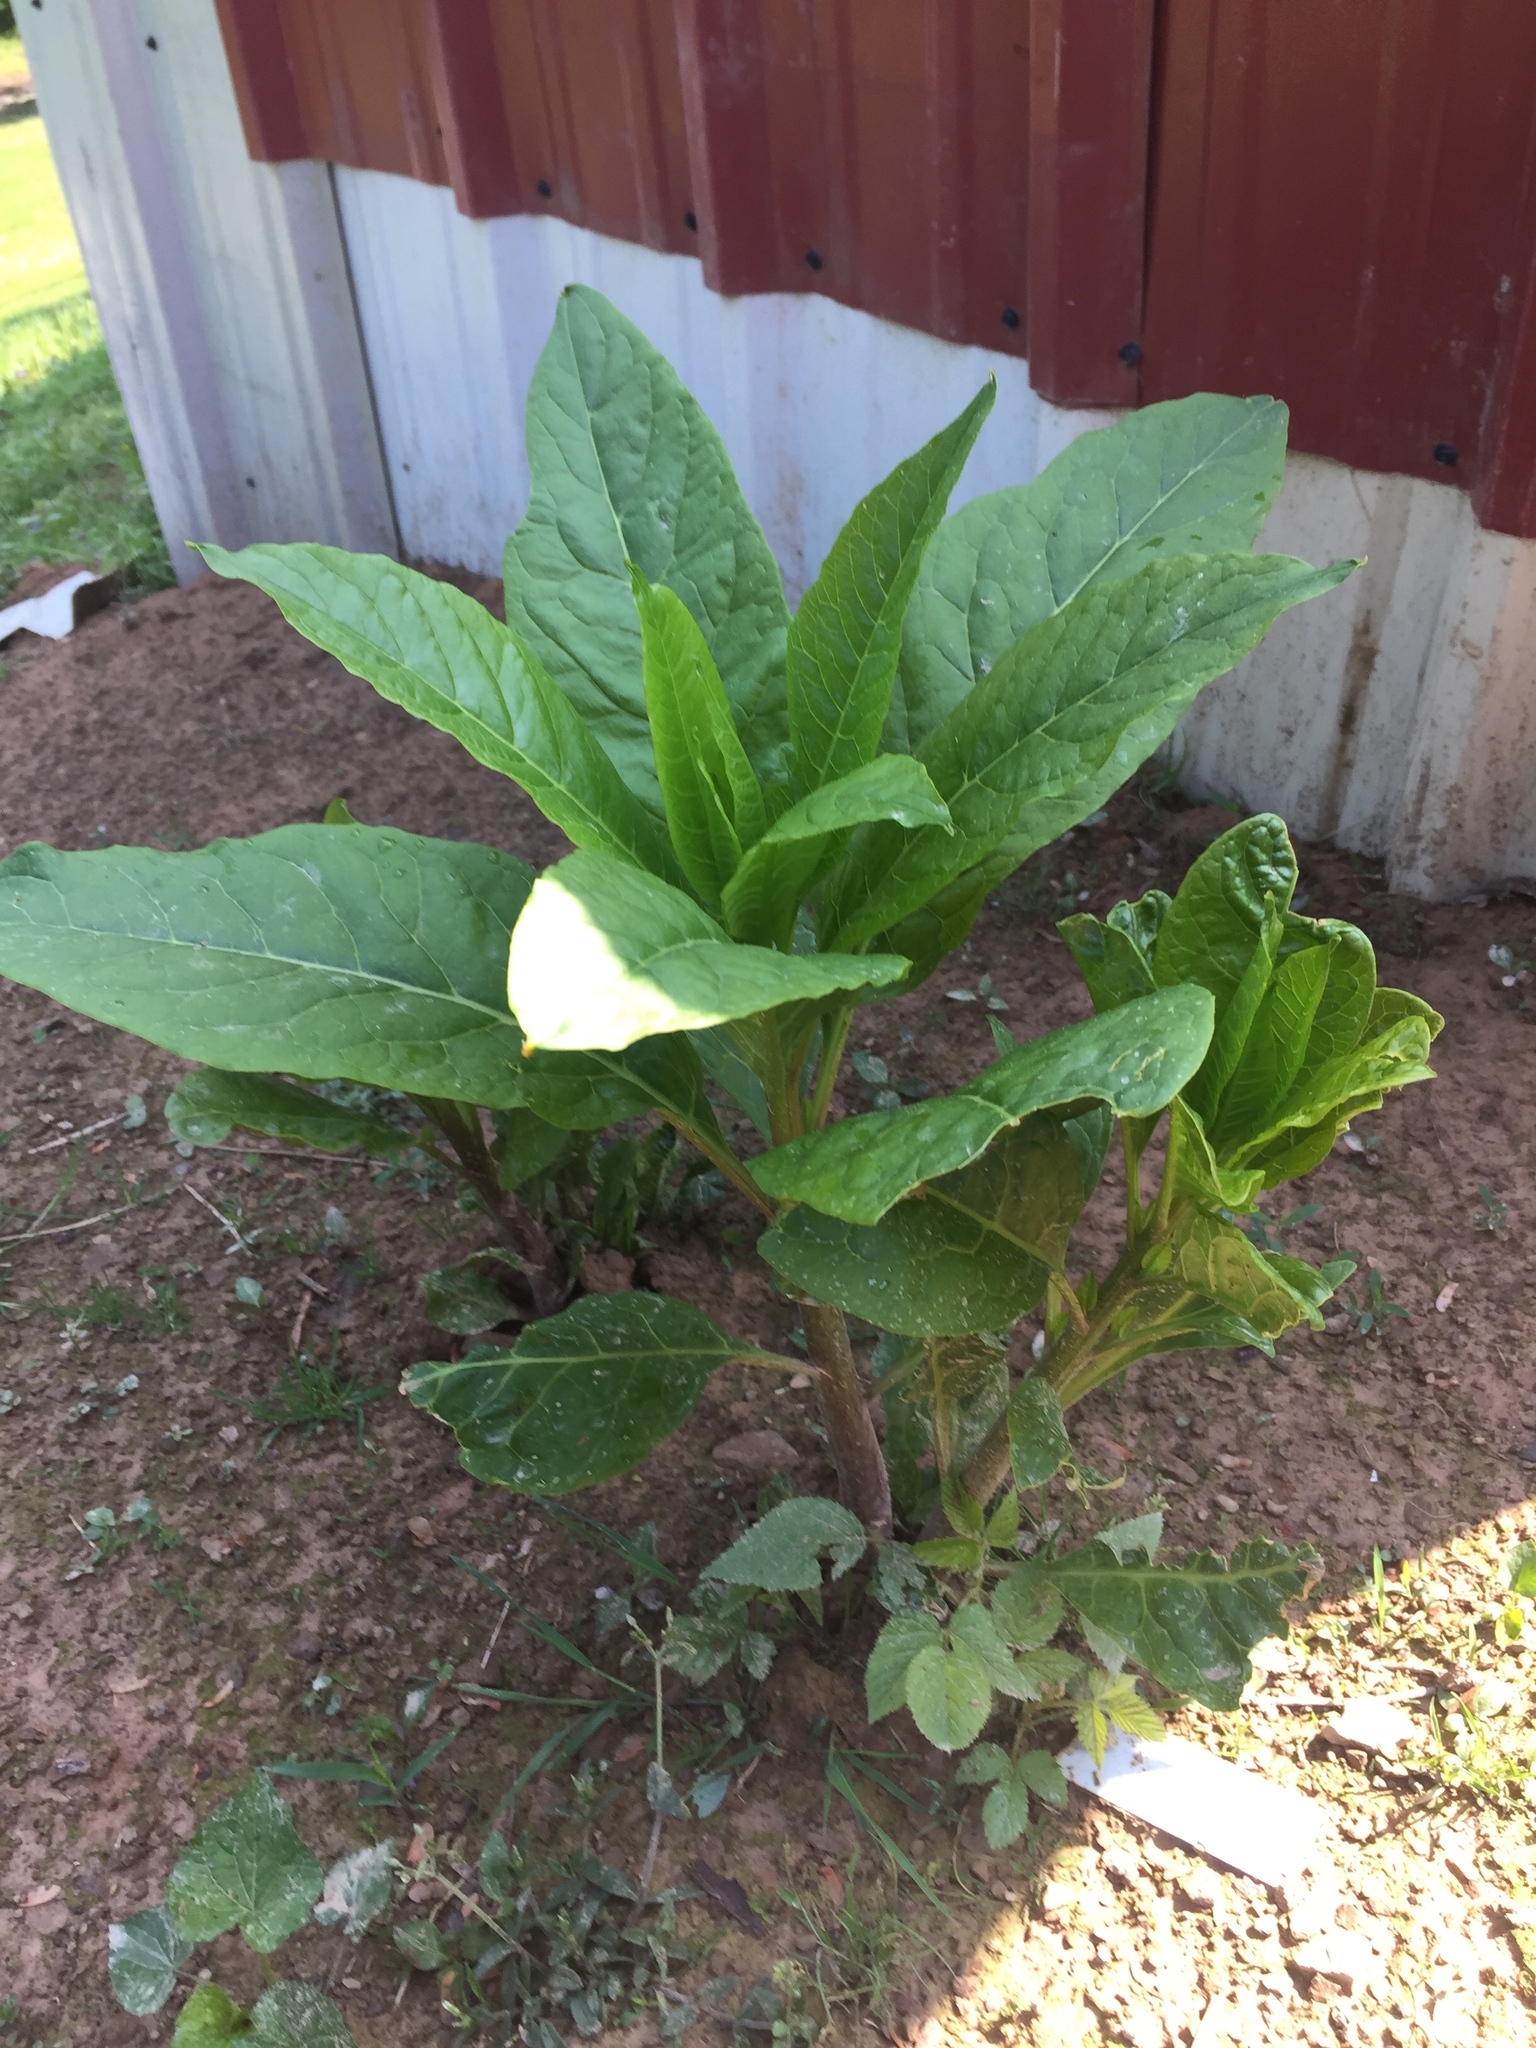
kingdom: Plantae
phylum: Tracheophyta
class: Magnoliopsida
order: Caryophyllales
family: Phytolaccaceae
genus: Phytolacca
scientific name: Phytolacca americana
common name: American pokeweed
